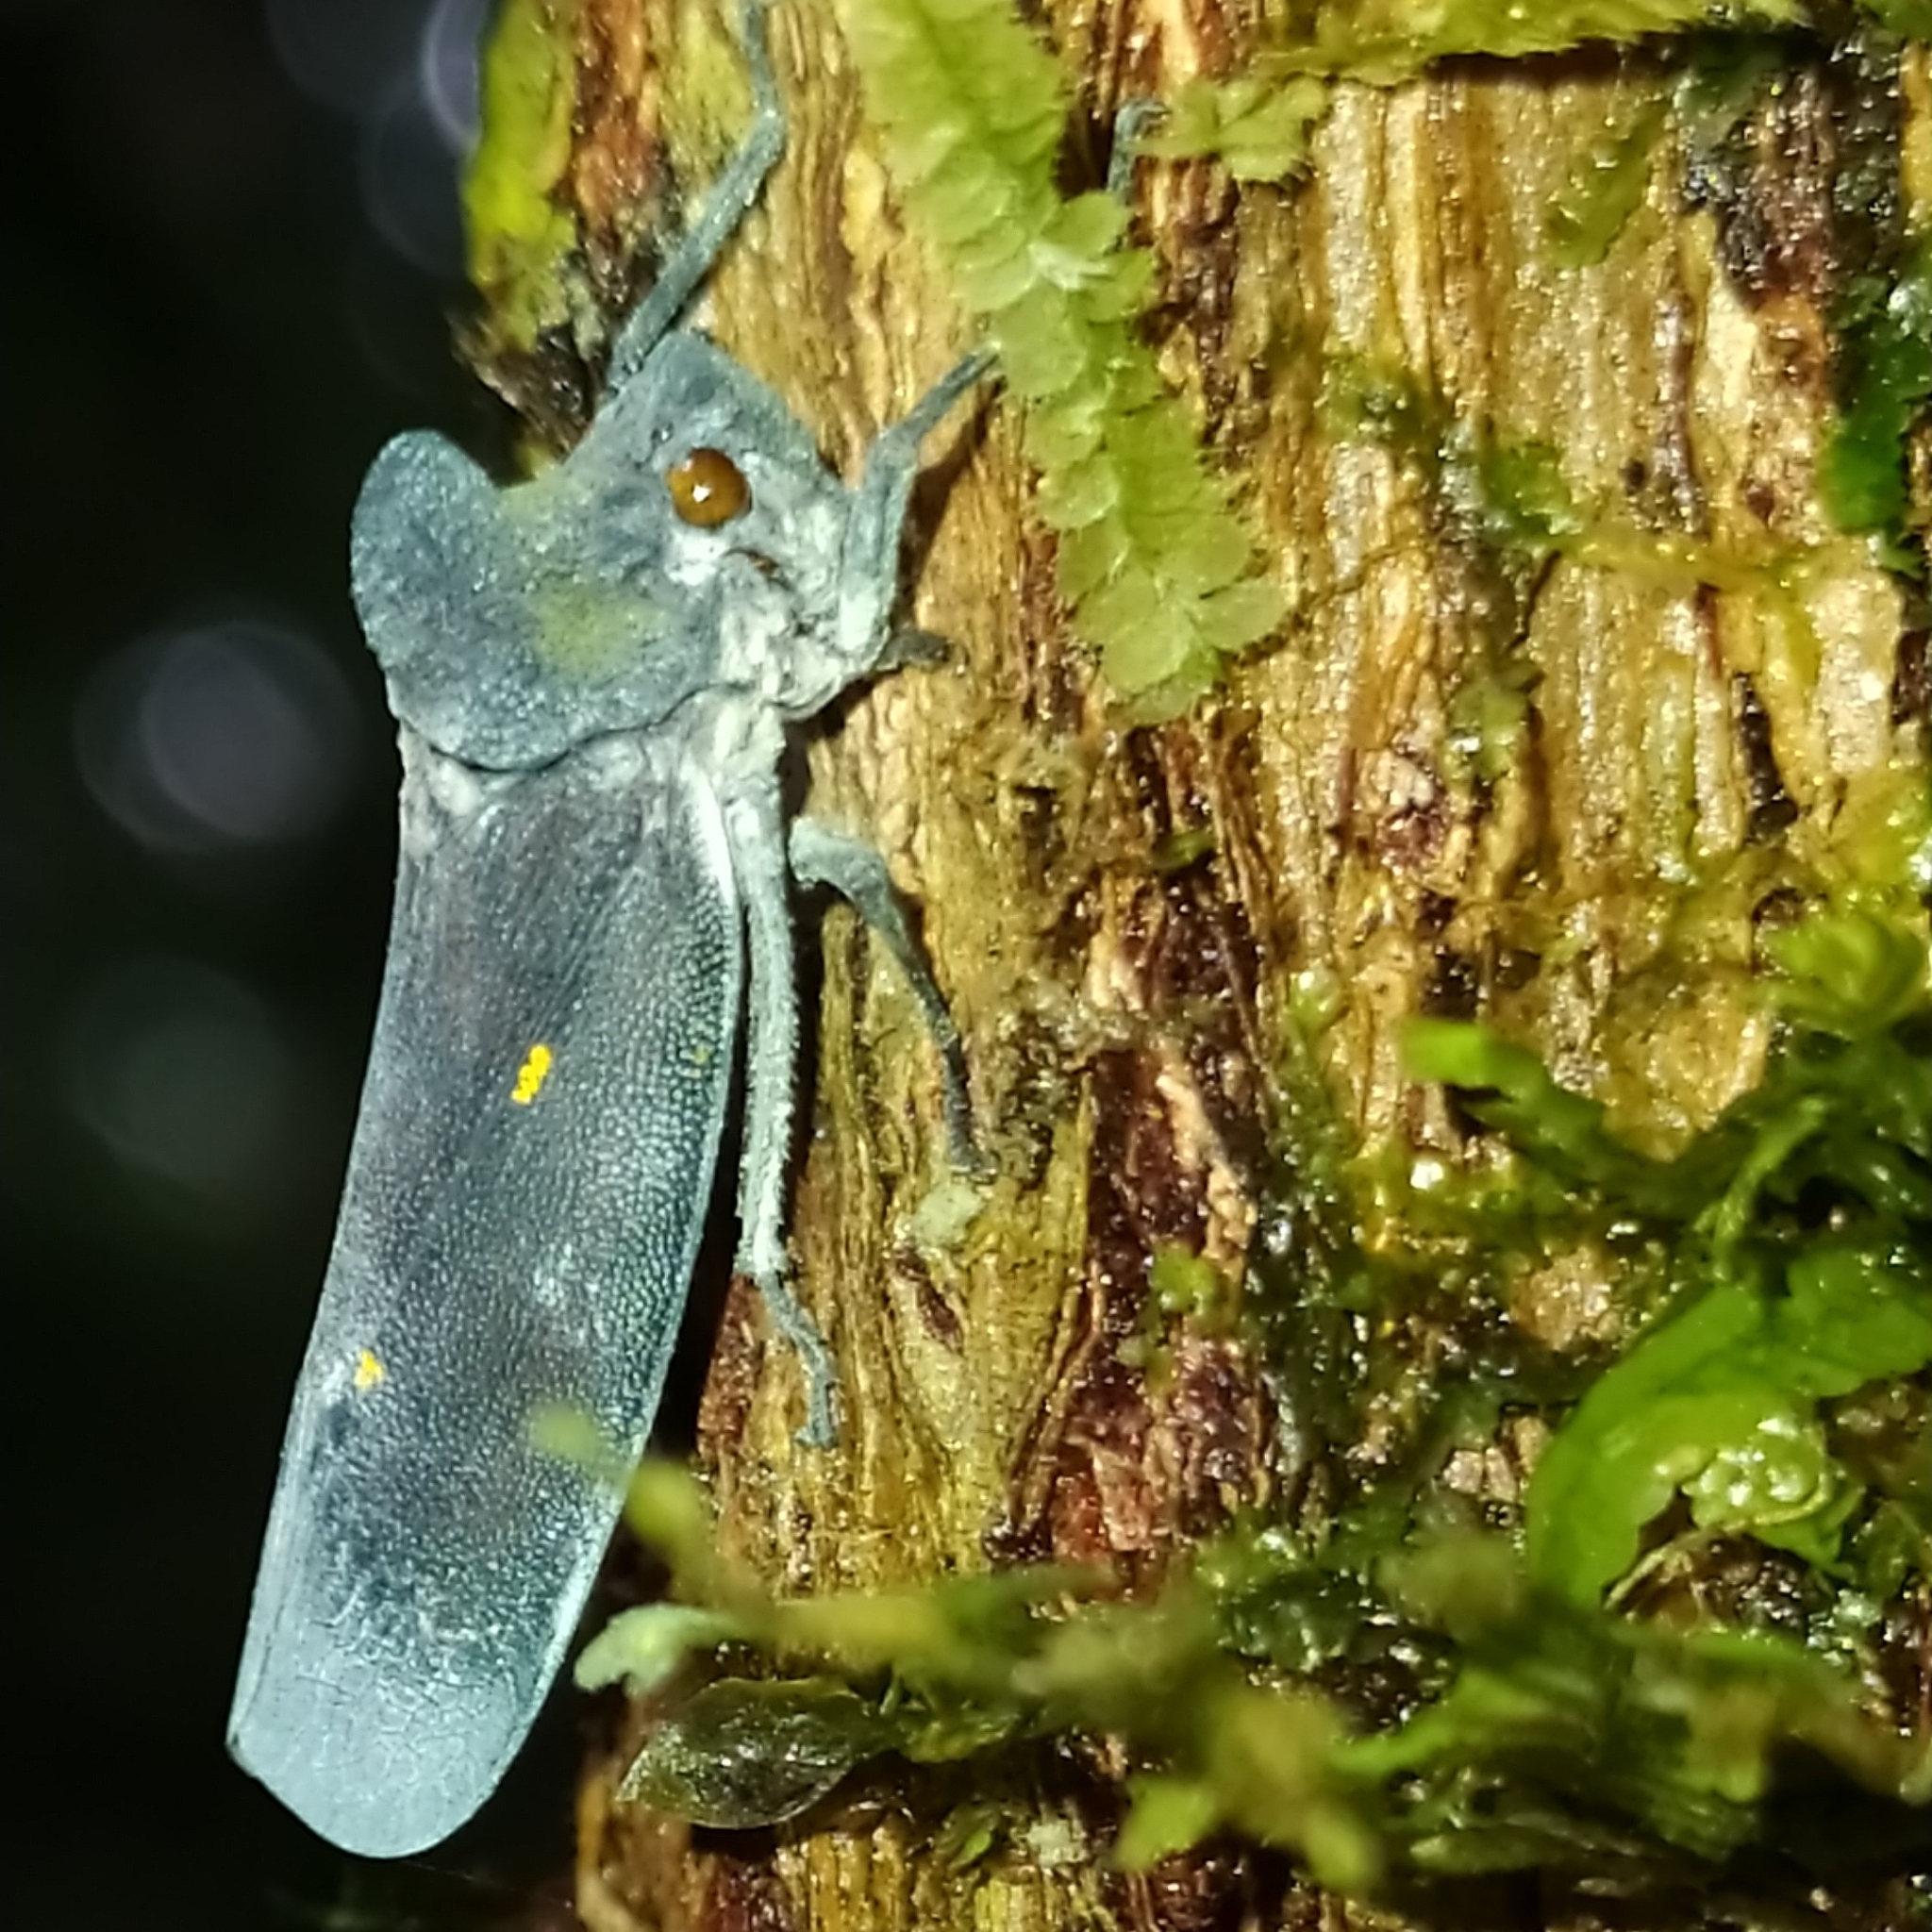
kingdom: Animalia
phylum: Arthropoda
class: Insecta
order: Hemiptera
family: Cicadellidae
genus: Proconia
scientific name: Proconia esmeraldae
